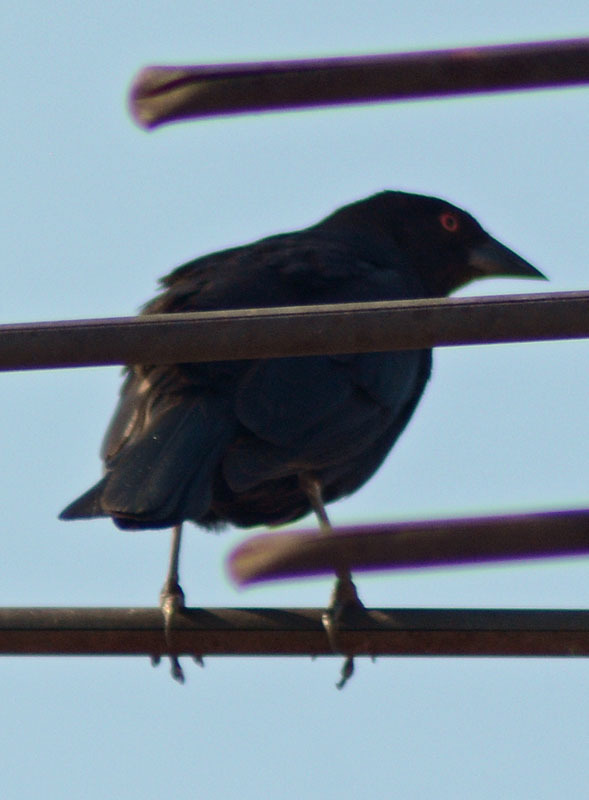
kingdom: Animalia
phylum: Chordata
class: Aves
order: Passeriformes
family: Icteridae
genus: Molothrus
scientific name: Molothrus aeneus
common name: Bronzed cowbird
